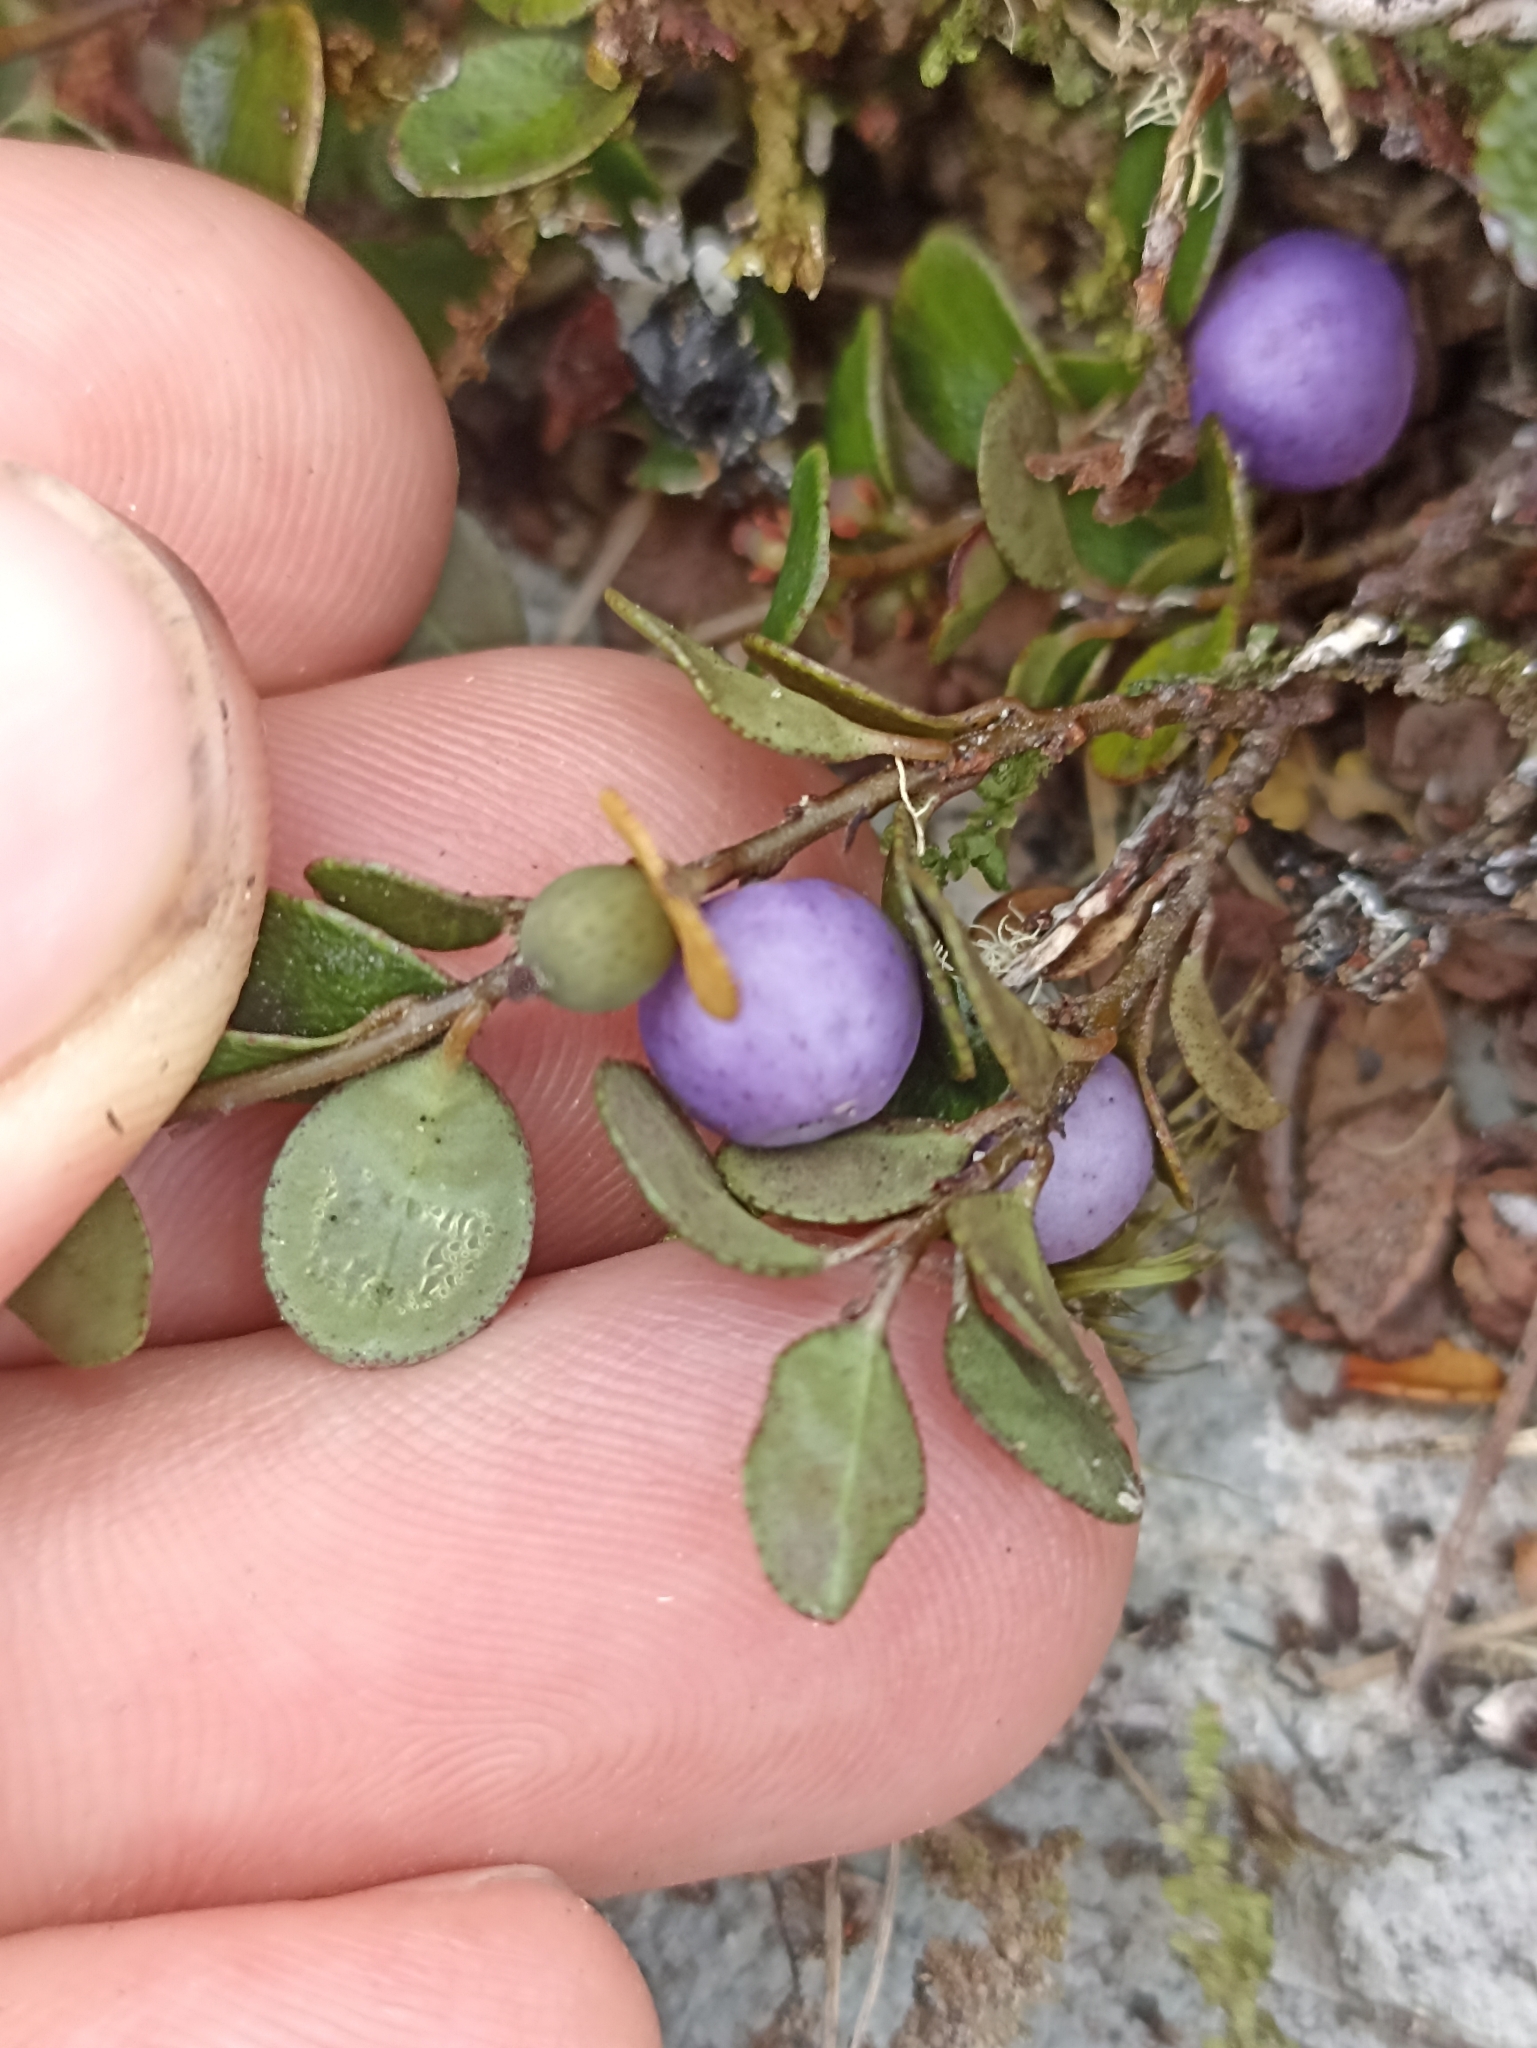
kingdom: Plantae
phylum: Tracheophyta
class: Magnoliopsida
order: Ericales
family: Primulaceae
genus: Myrsine
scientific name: Myrsine nummularia
